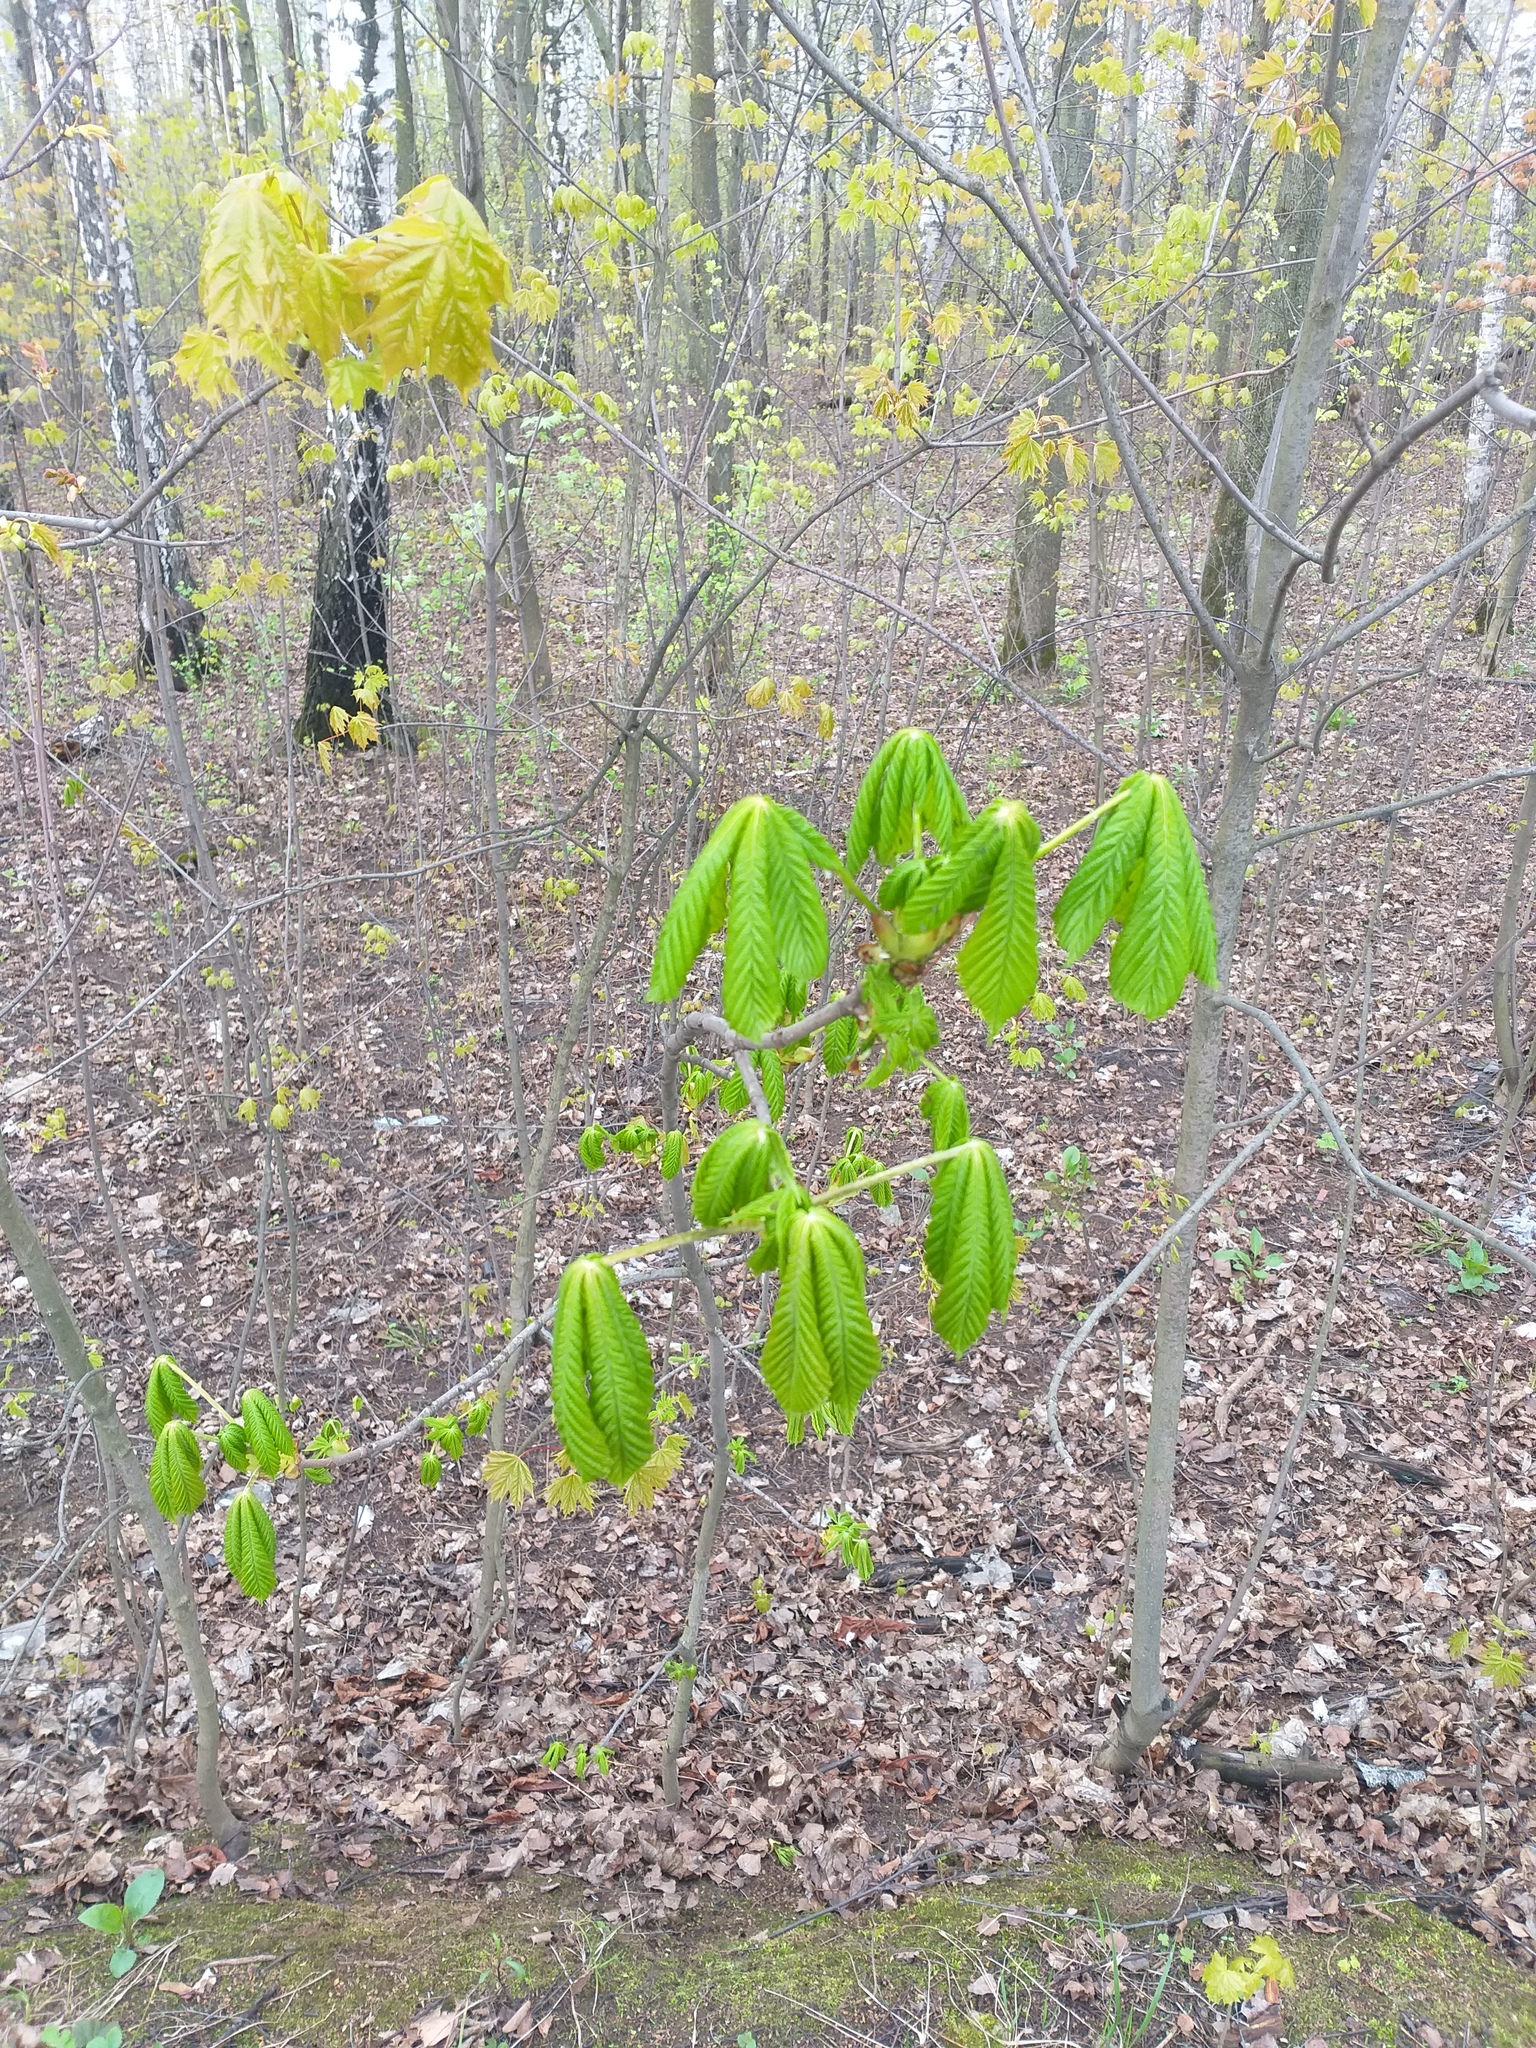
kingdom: Plantae
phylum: Tracheophyta
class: Magnoliopsida
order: Sapindales
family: Sapindaceae
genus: Aesculus
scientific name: Aesculus hippocastanum
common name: Horse-chestnut
